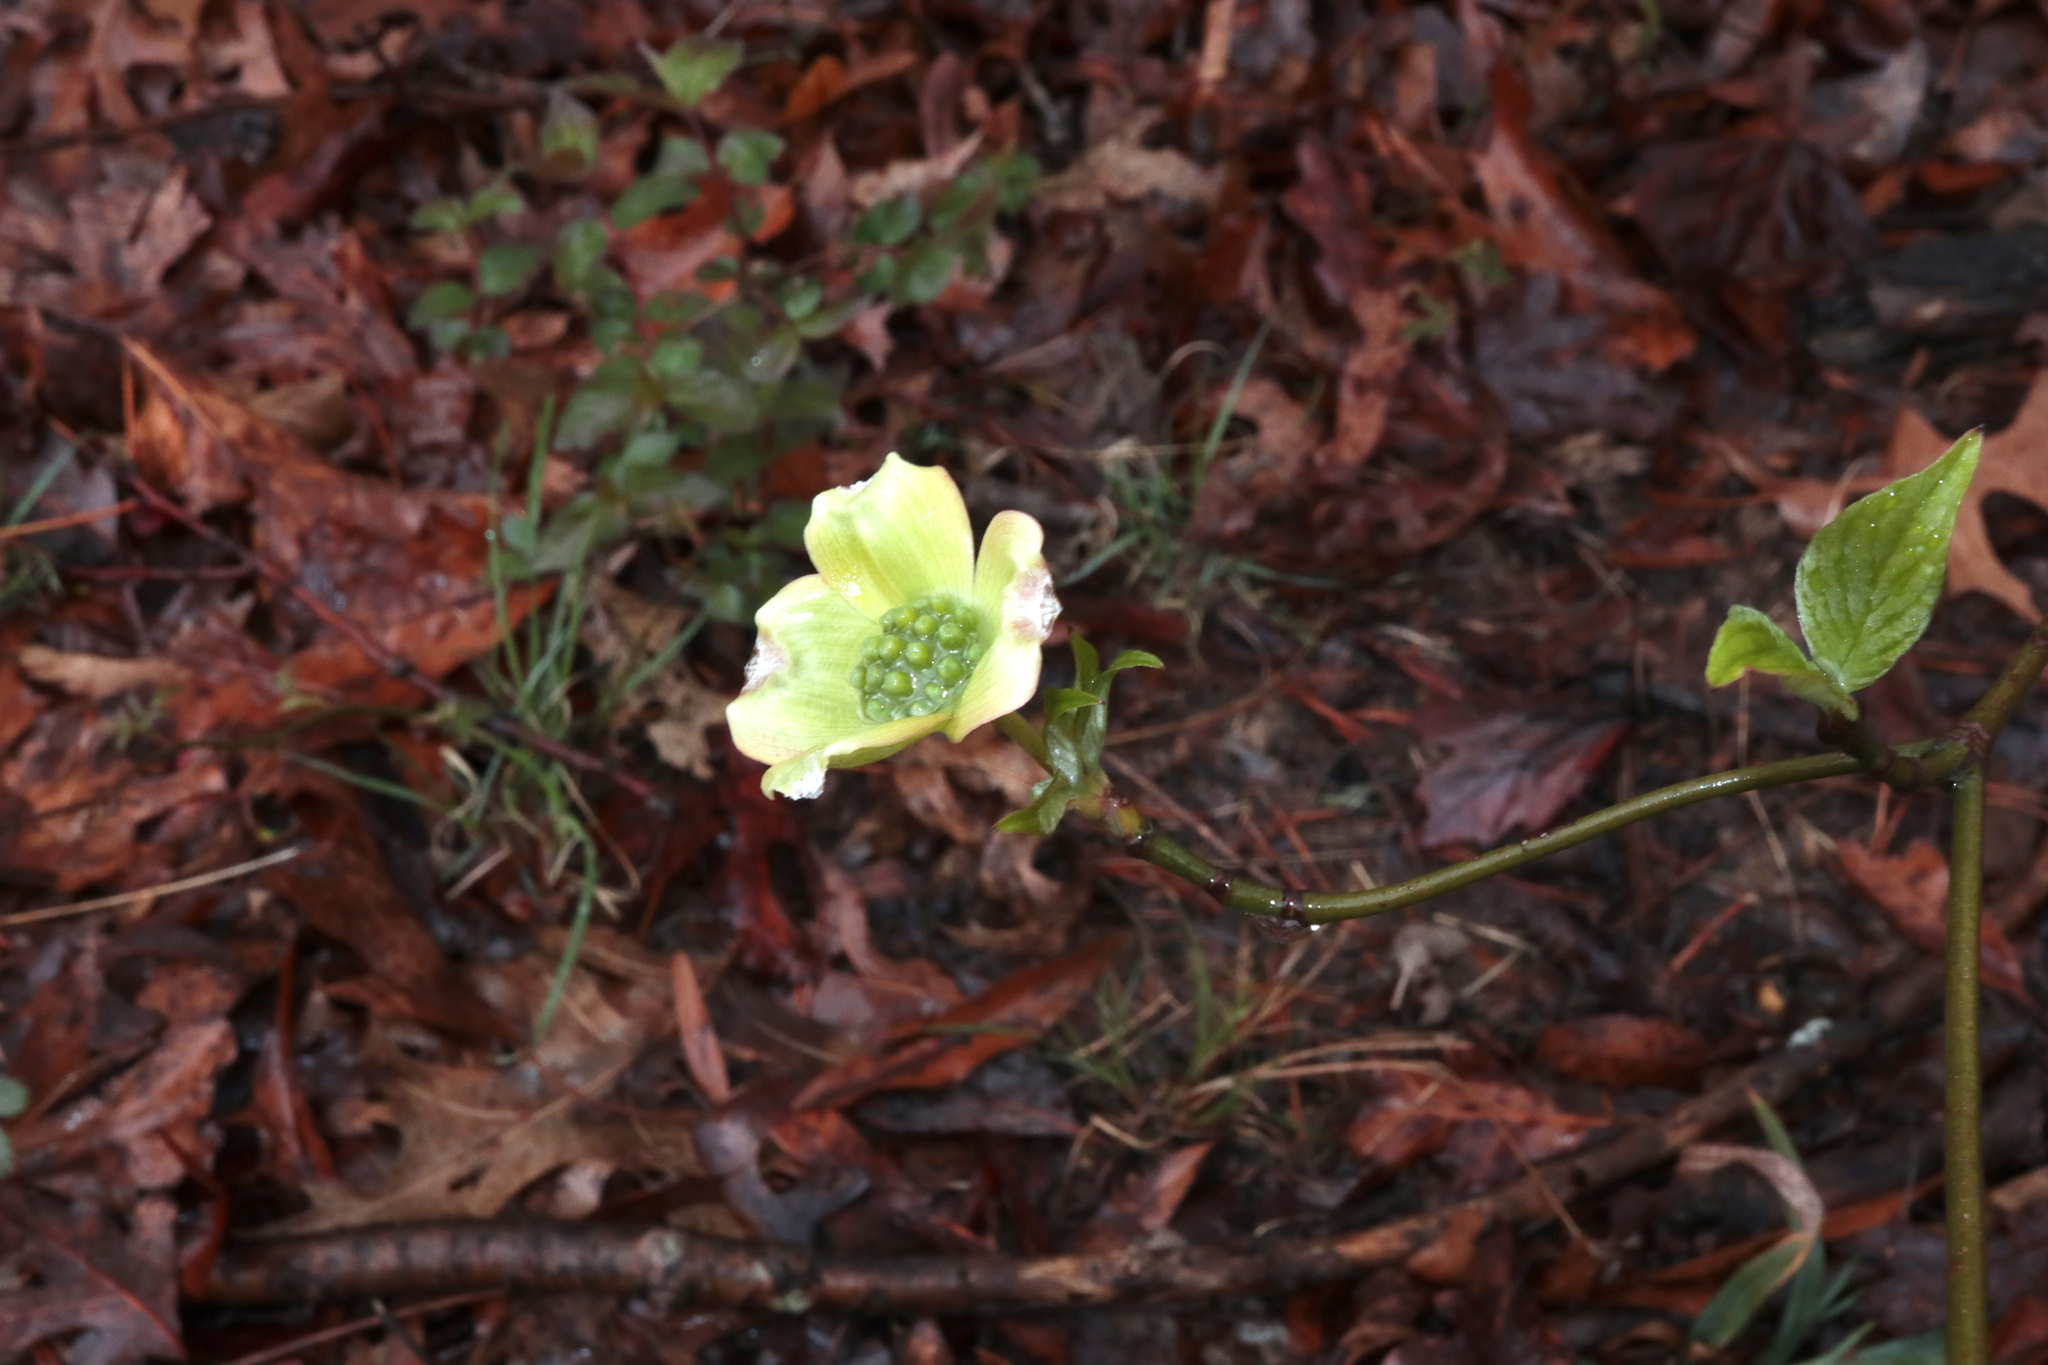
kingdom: Plantae
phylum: Tracheophyta
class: Magnoliopsida
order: Cornales
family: Cornaceae
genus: Cornus
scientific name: Cornus florida
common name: Flowering dogwood
